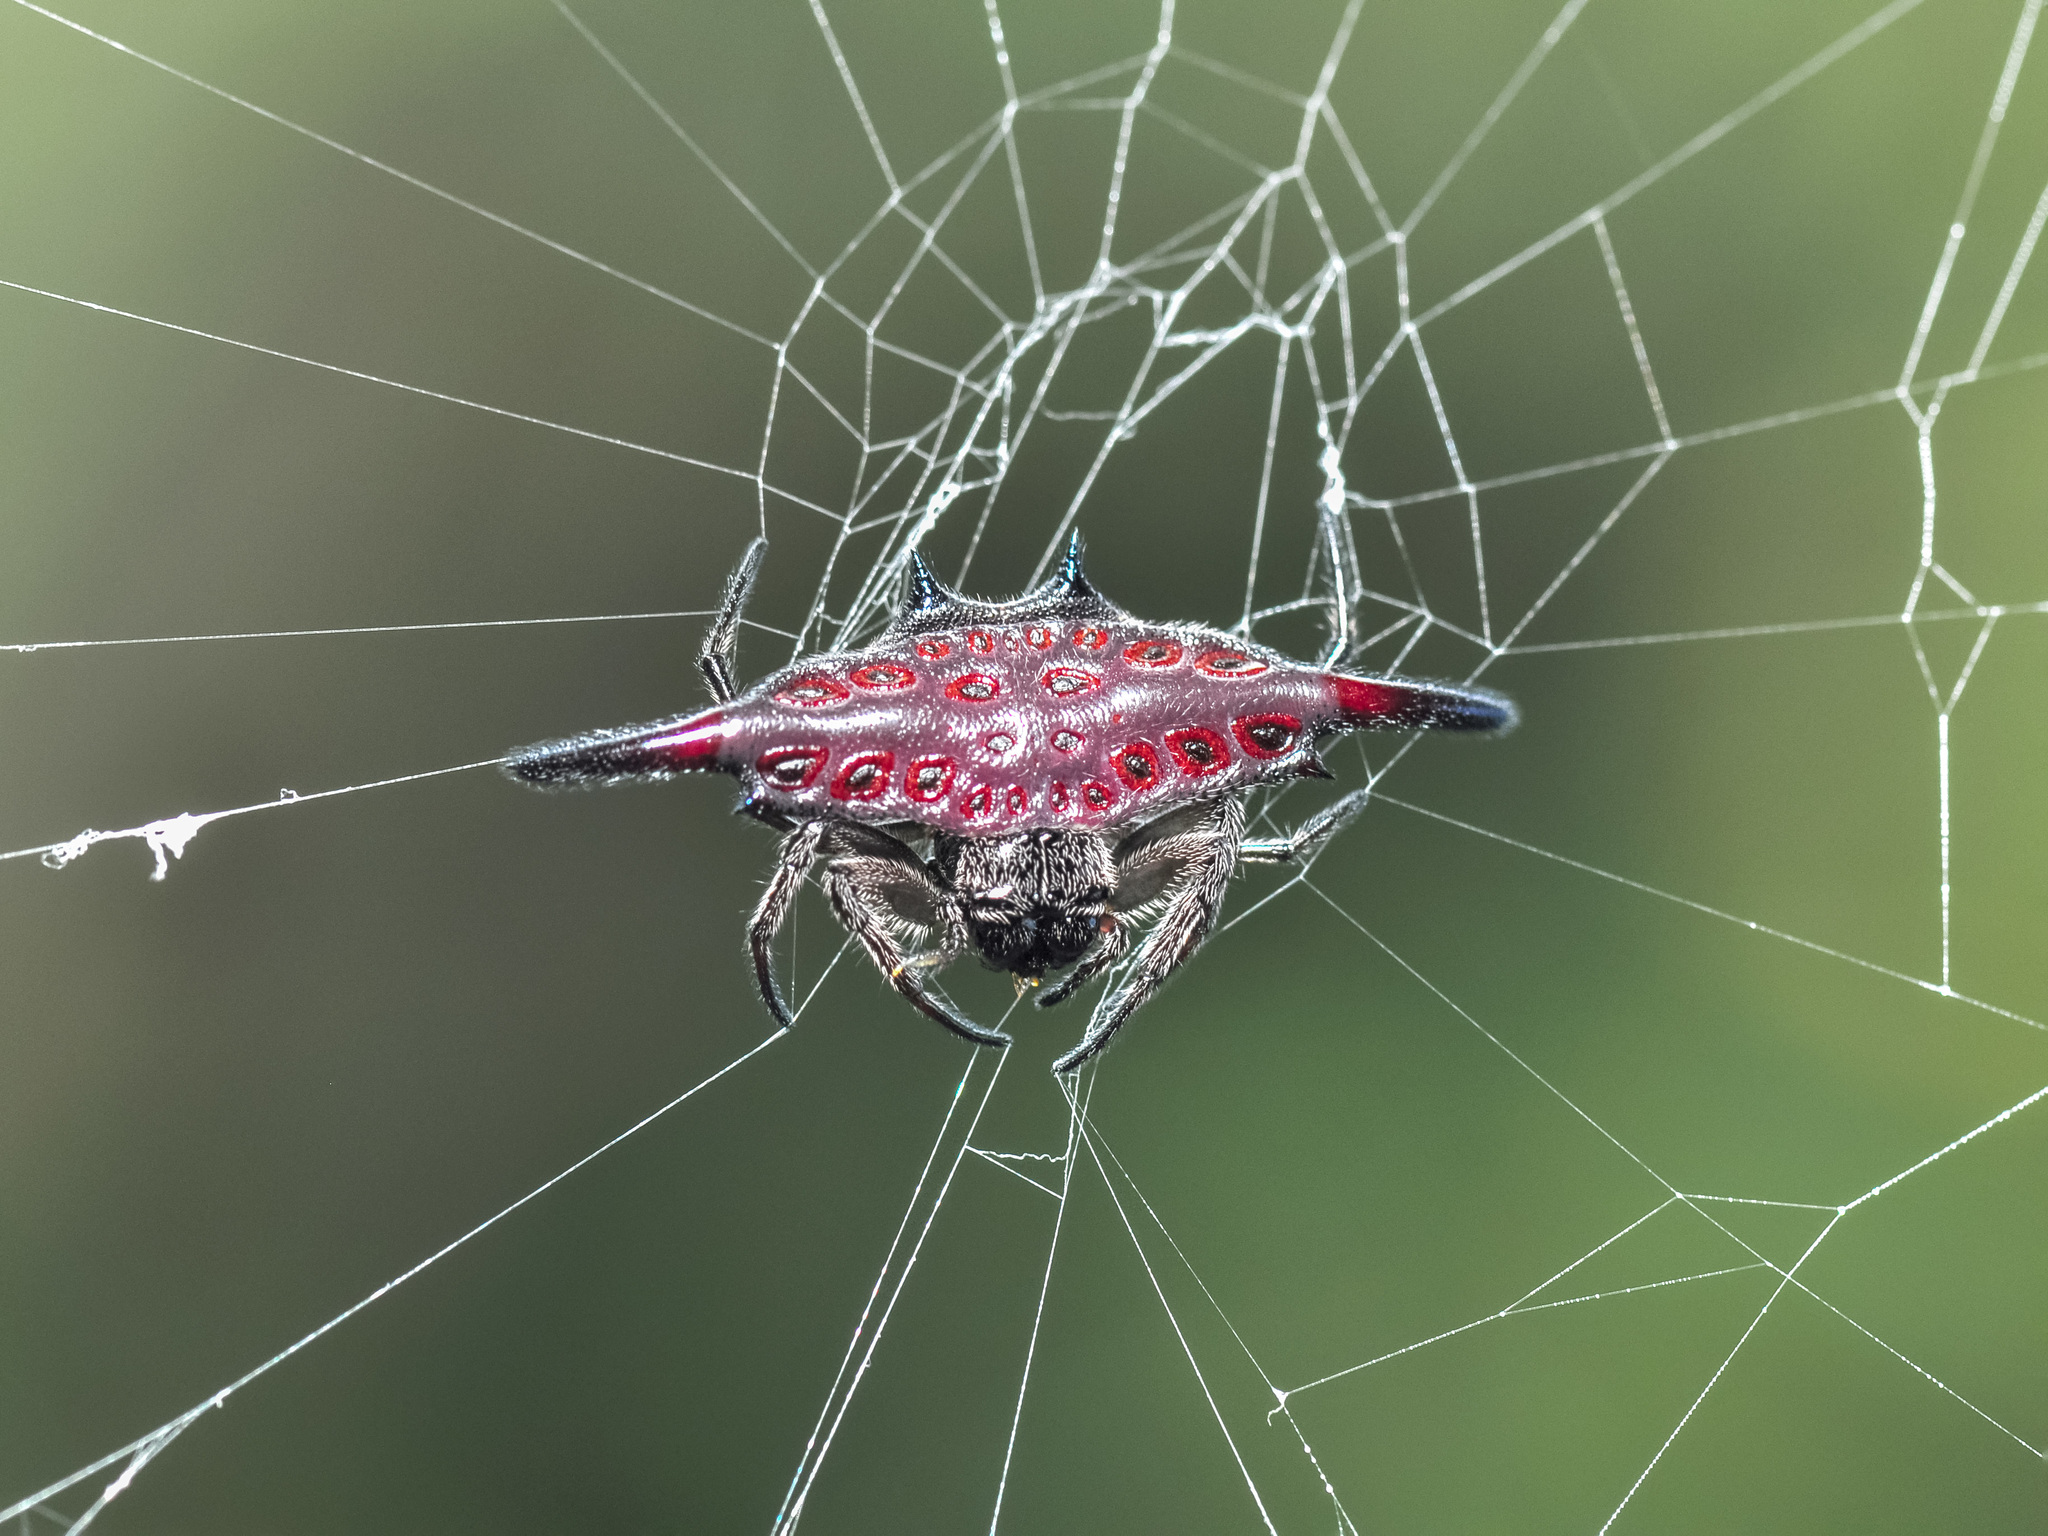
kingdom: Animalia
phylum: Arthropoda
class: Arachnida
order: Araneae
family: Araneidae
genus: Gasteracantha
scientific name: Gasteracantha diardi
